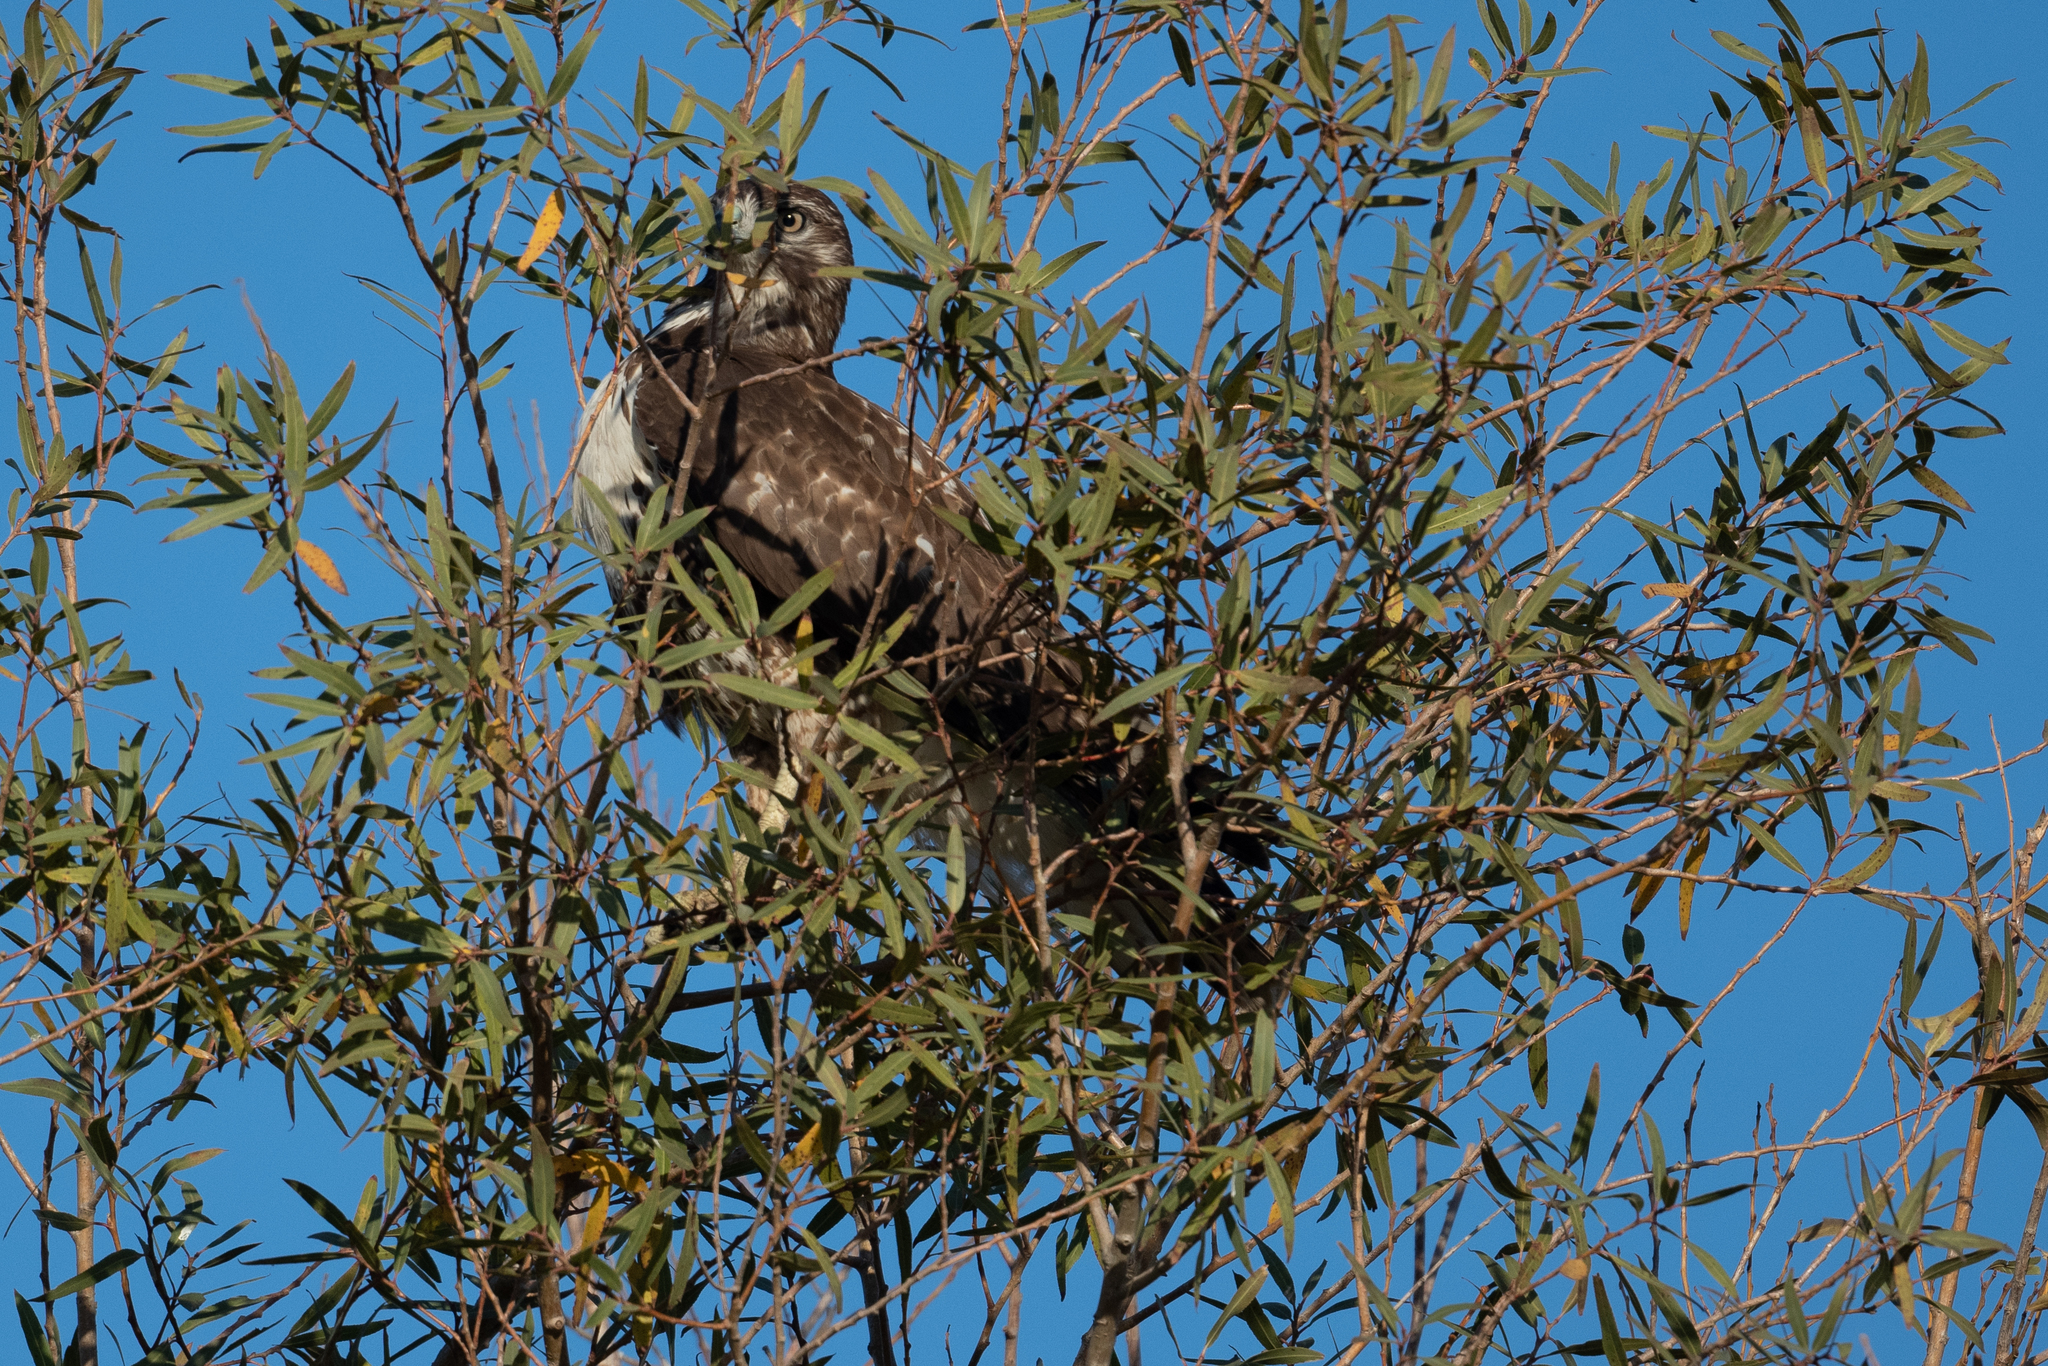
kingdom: Animalia
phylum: Chordata
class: Aves
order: Accipitriformes
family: Accipitridae
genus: Buteo
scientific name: Buteo jamaicensis
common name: Red-tailed hawk
